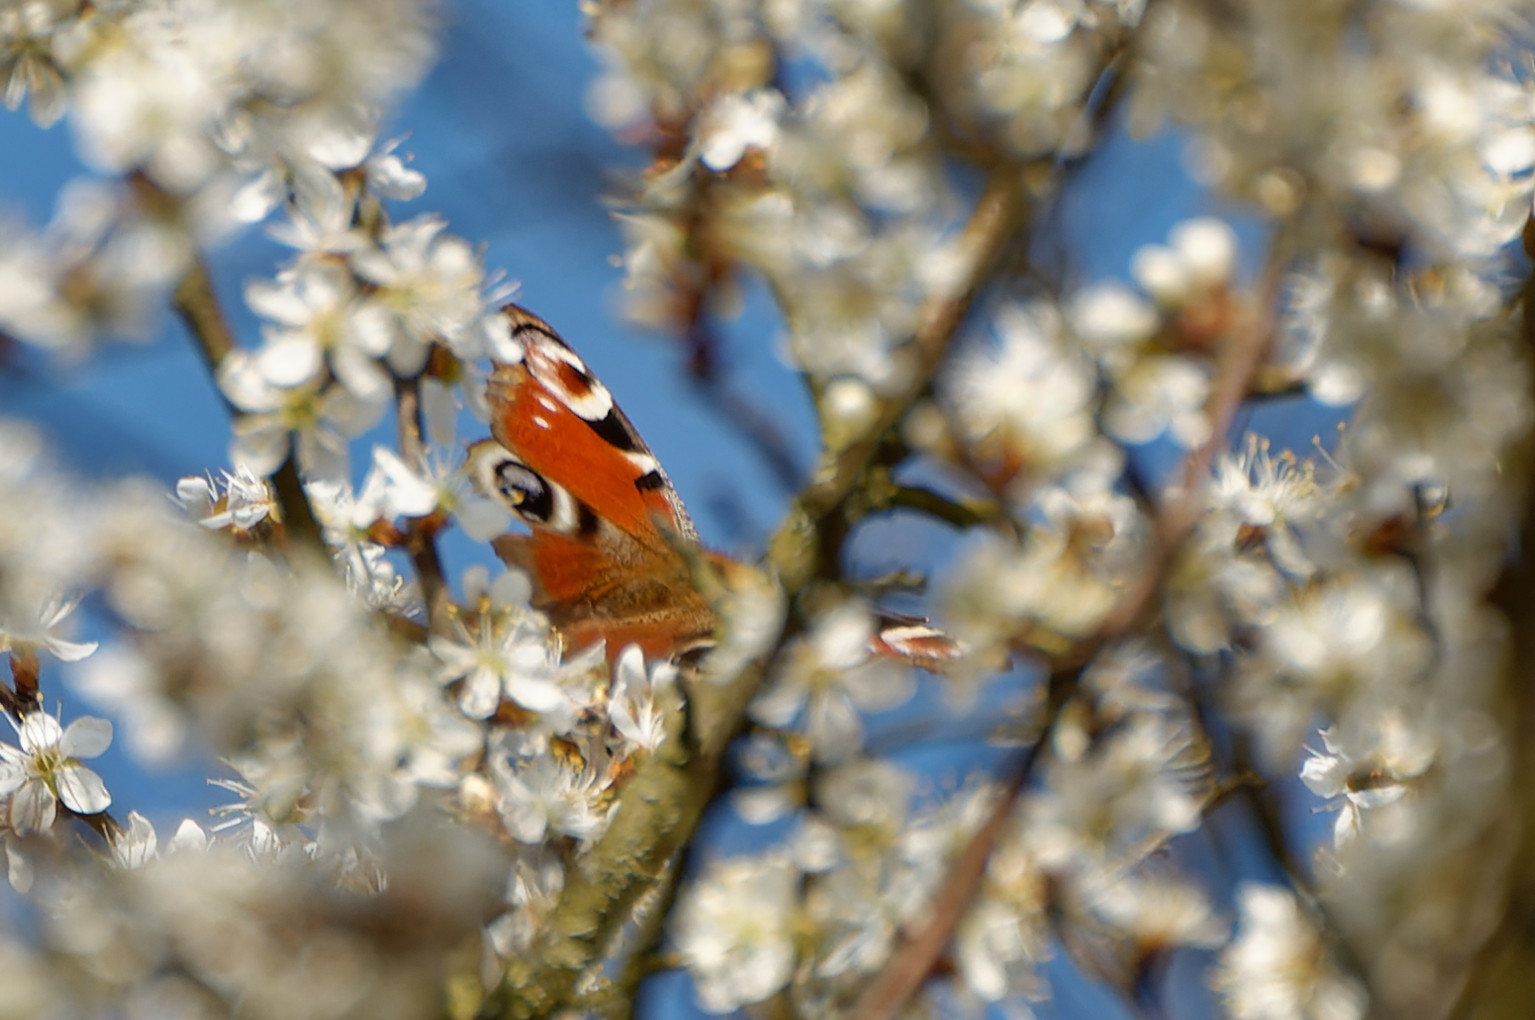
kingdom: Animalia
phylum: Arthropoda
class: Insecta
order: Lepidoptera
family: Nymphalidae
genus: Aglais
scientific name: Aglais io
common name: Peacock
